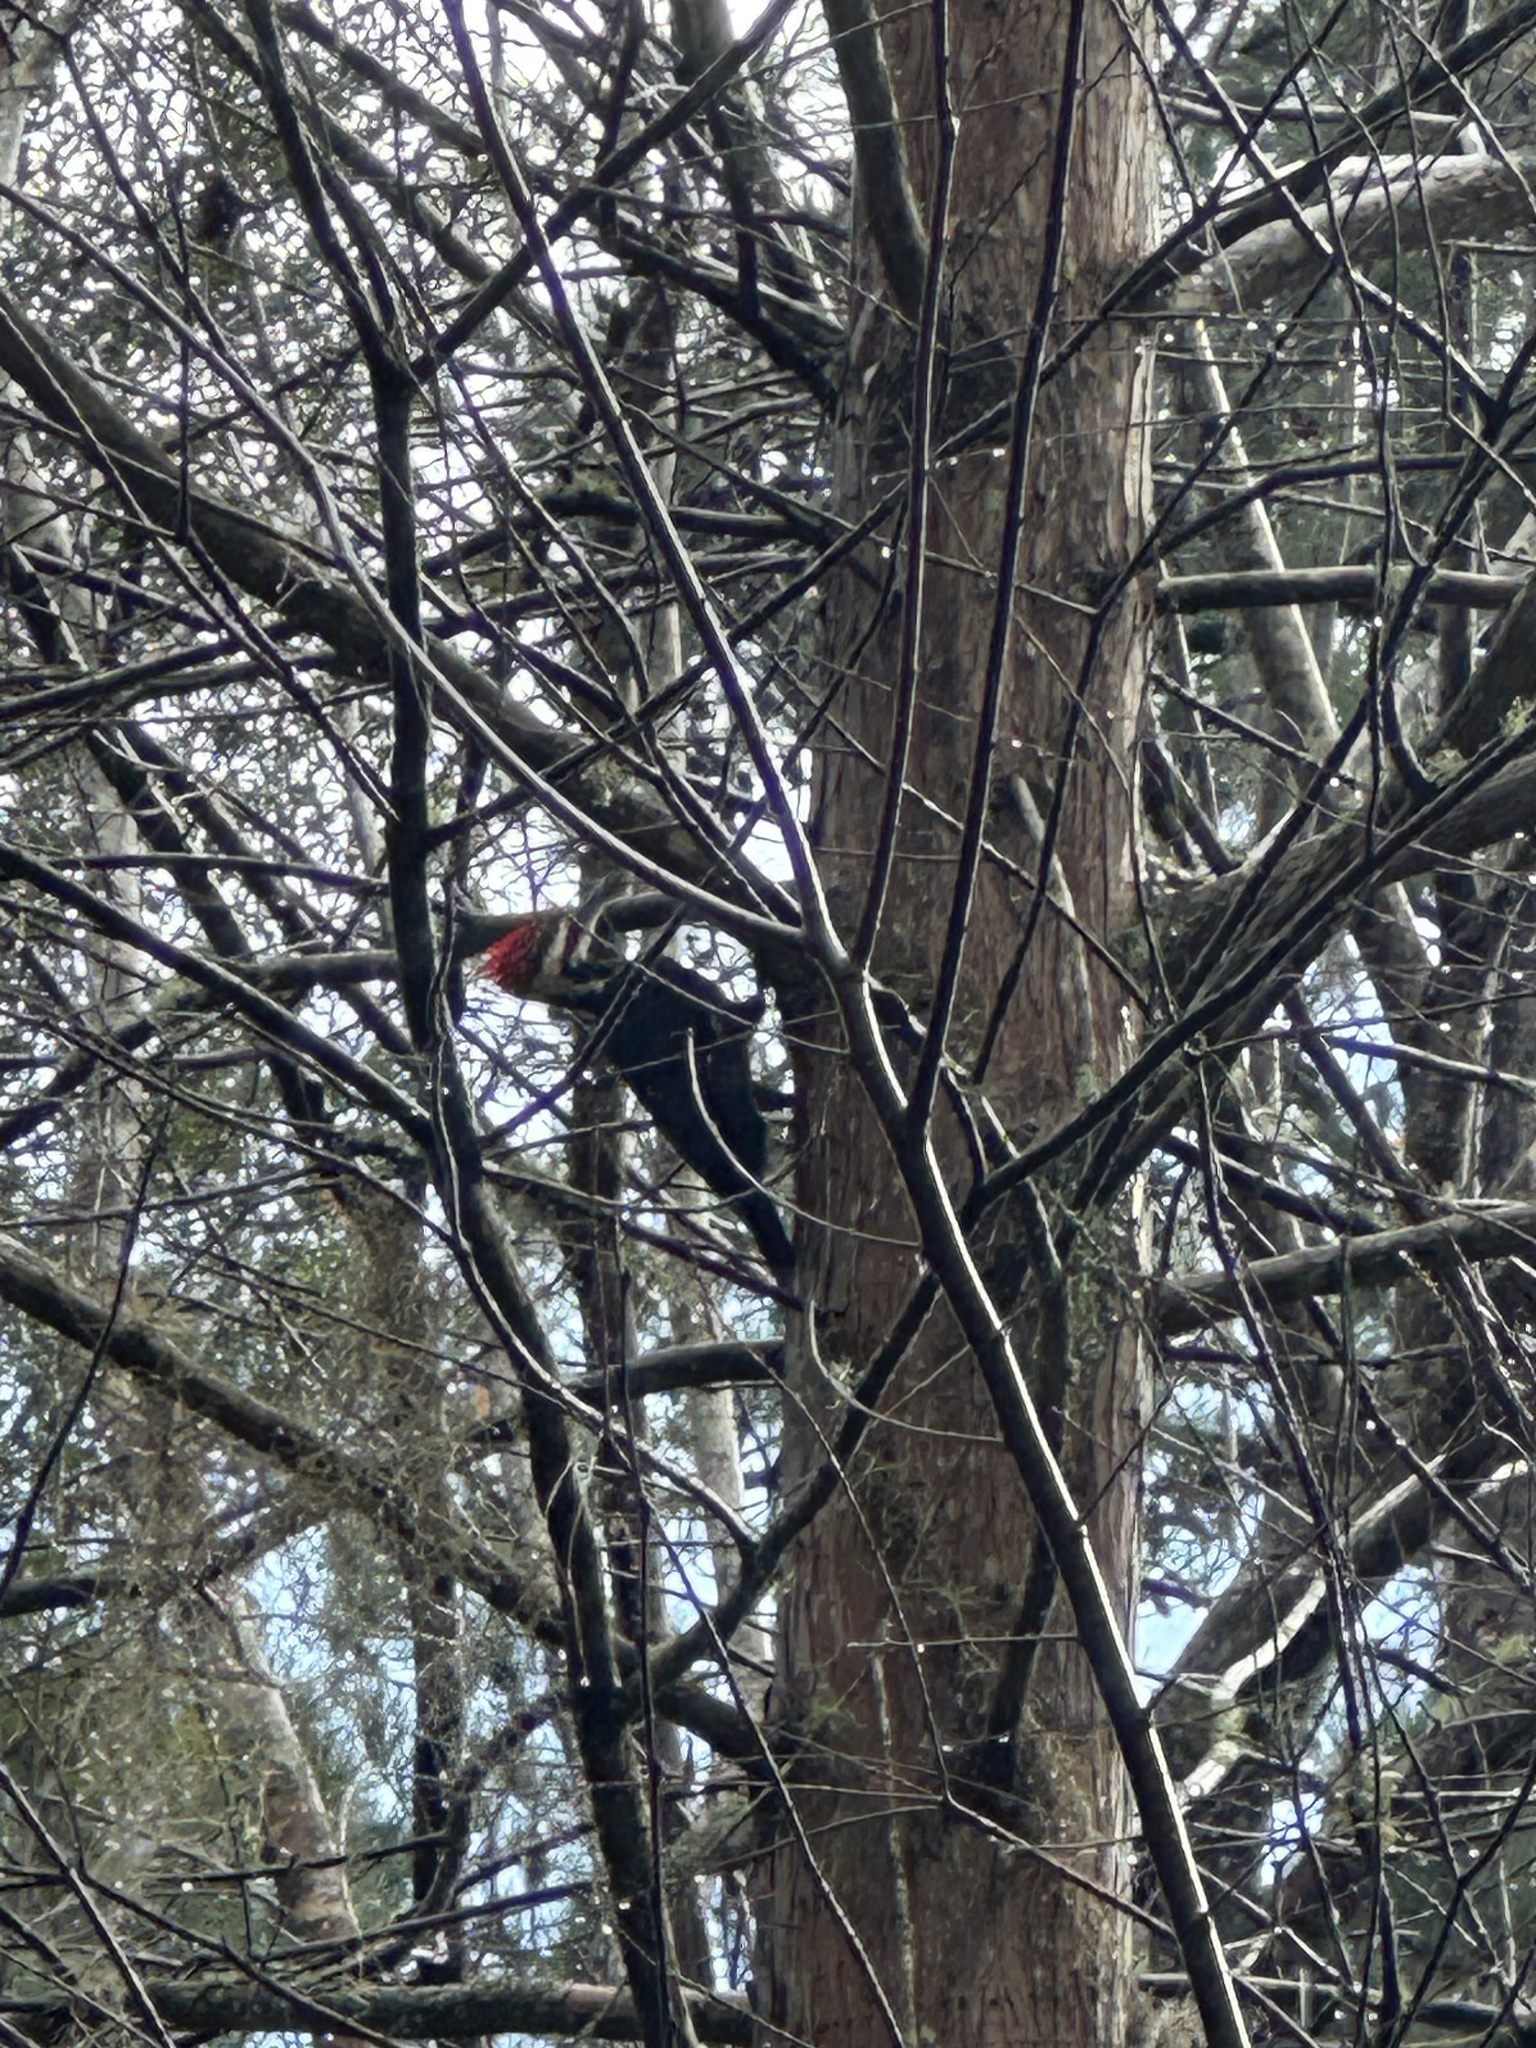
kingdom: Animalia
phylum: Chordata
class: Aves
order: Piciformes
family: Picidae
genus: Dryocopus
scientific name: Dryocopus pileatus
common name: Pileated woodpecker
